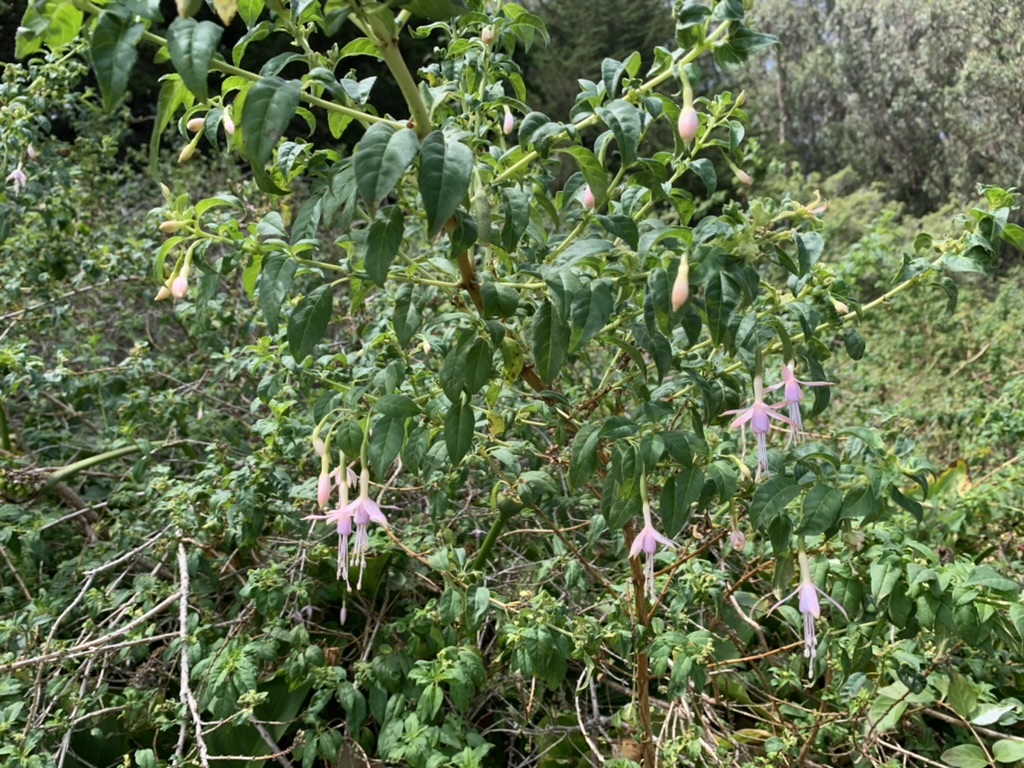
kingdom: Plantae
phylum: Tracheophyta
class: Magnoliopsida
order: Myrtales
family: Onagraceae
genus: Fuchsia
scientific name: Fuchsia magellanica
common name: Hardy fuchsia
